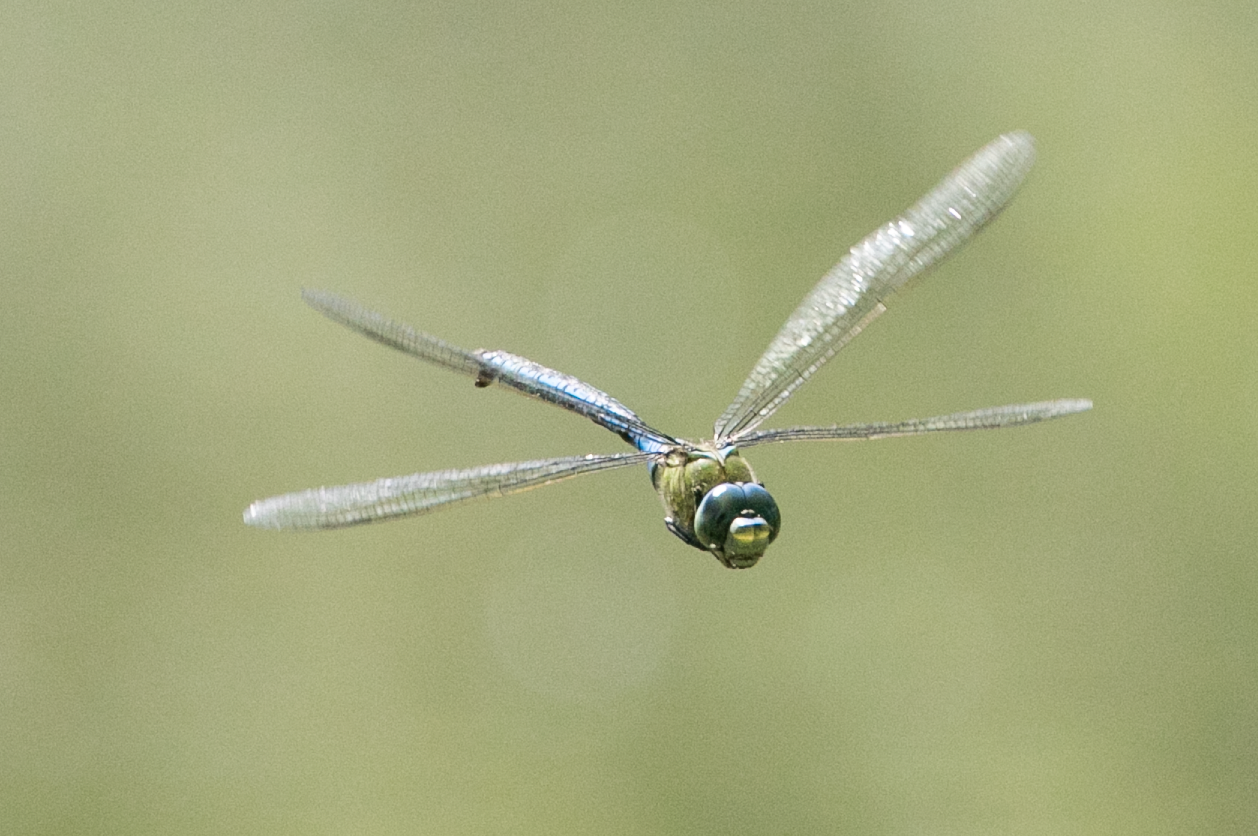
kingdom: Animalia
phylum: Arthropoda
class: Insecta
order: Odonata
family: Aeshnidae
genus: Anax
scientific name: Anax imperator
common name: Emperor dragonfly
